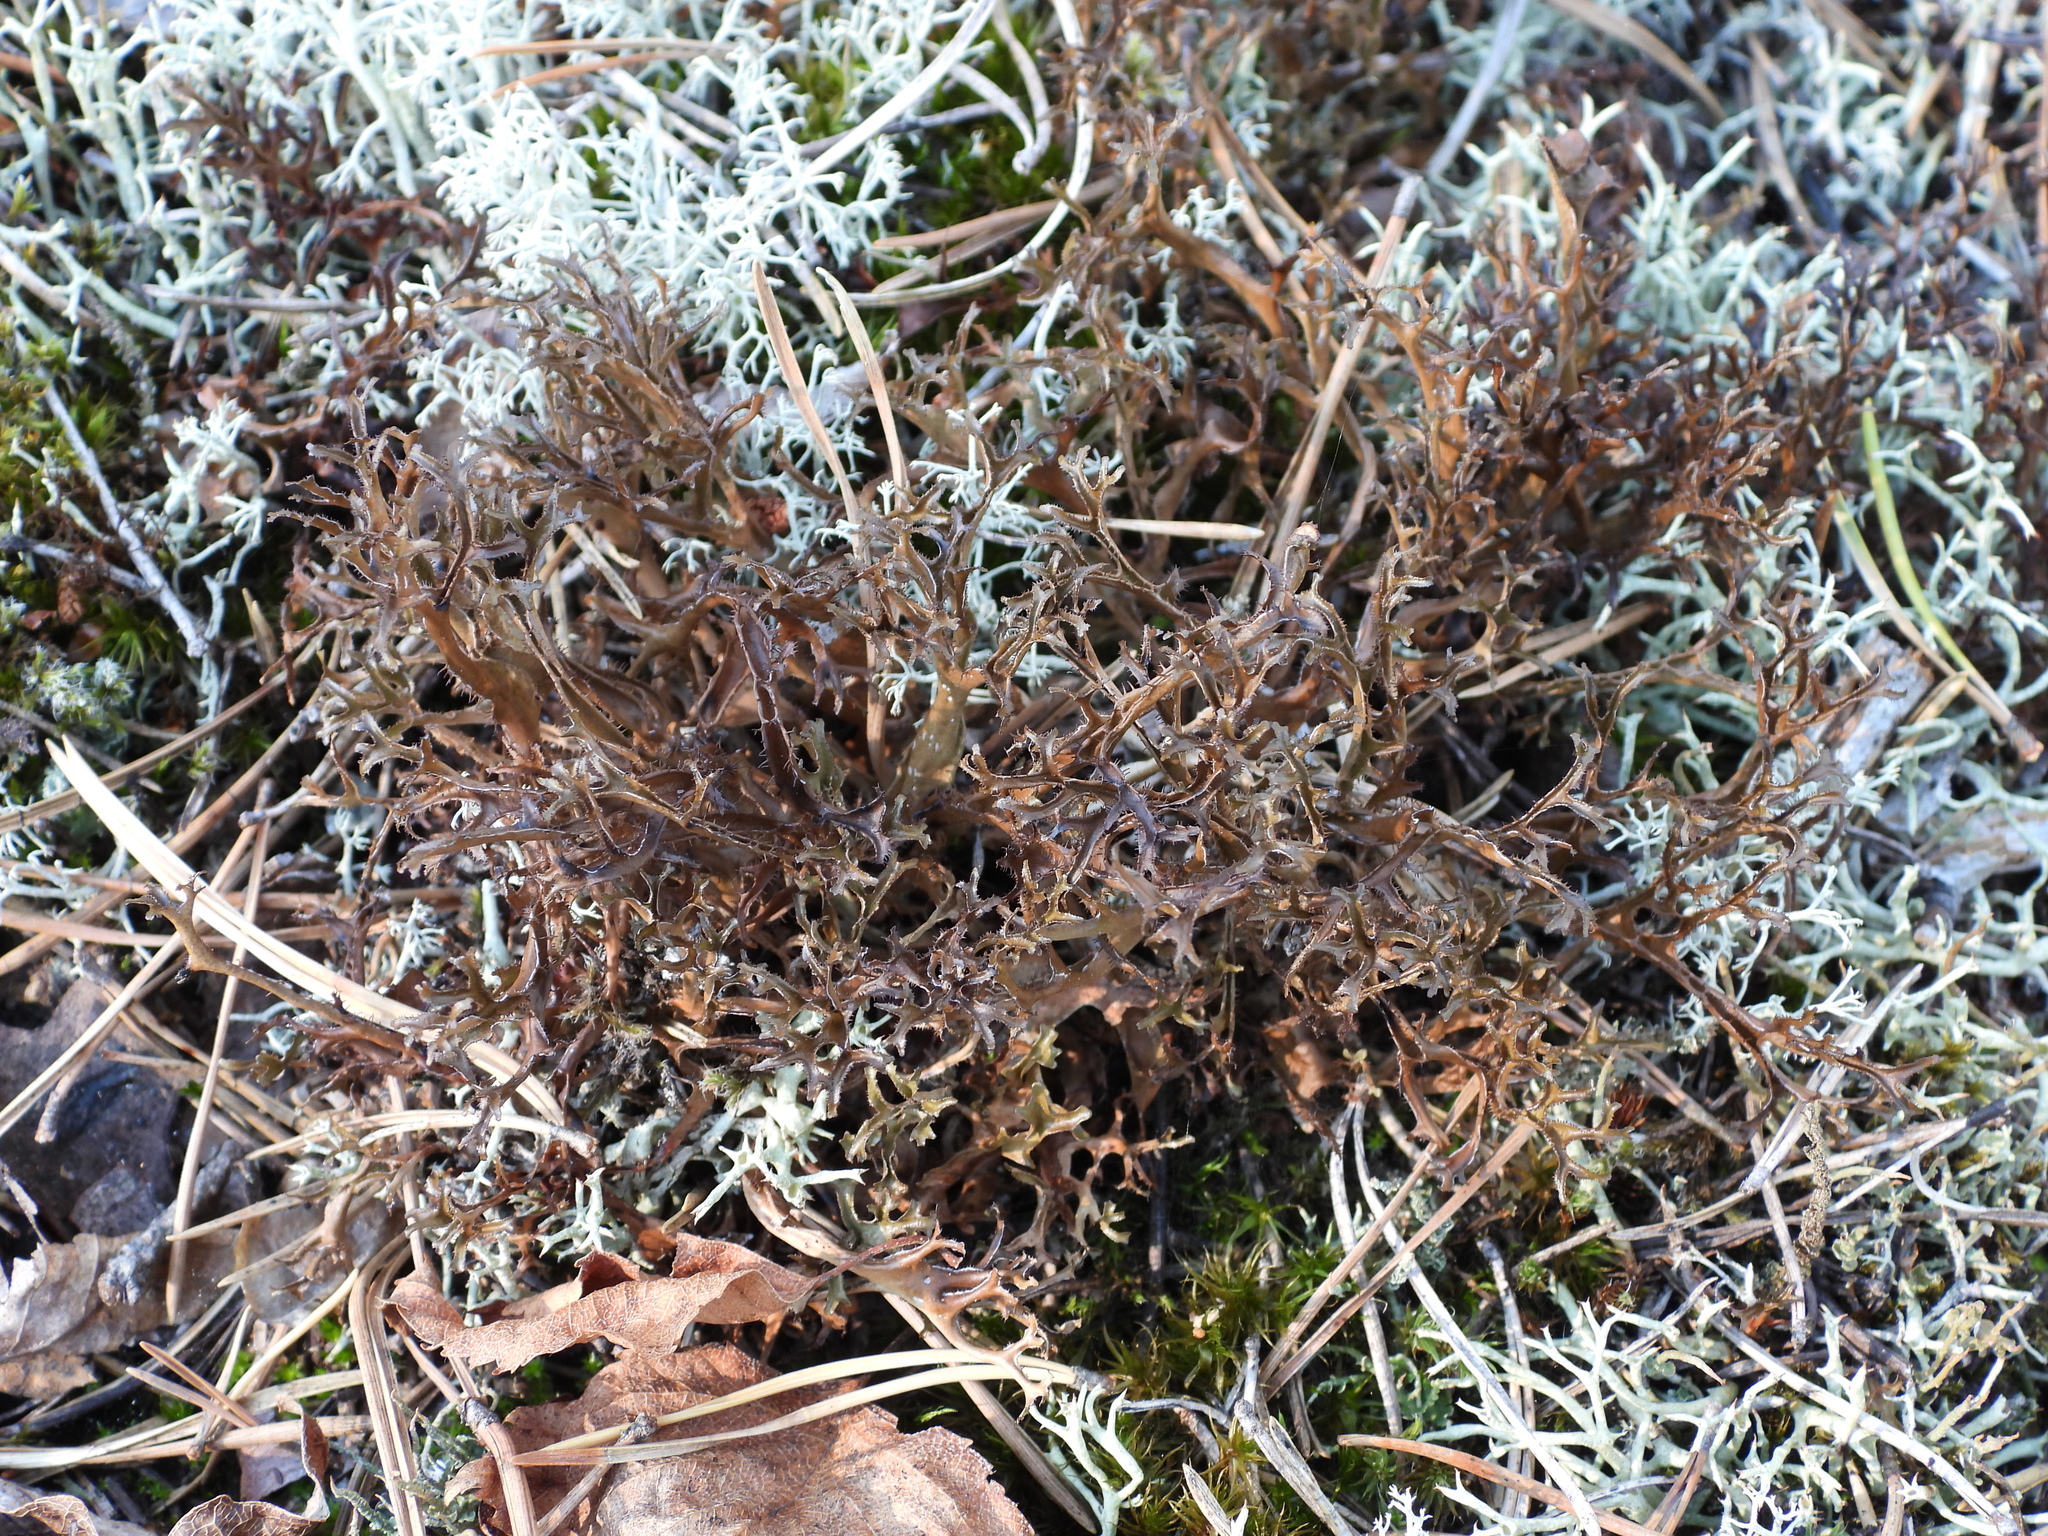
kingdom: Fungi
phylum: Ascomycota
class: Lecanoromycetes
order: Lecanorales
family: Parmeliaceae
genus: Cetraria
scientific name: Cetraria ericetorum
